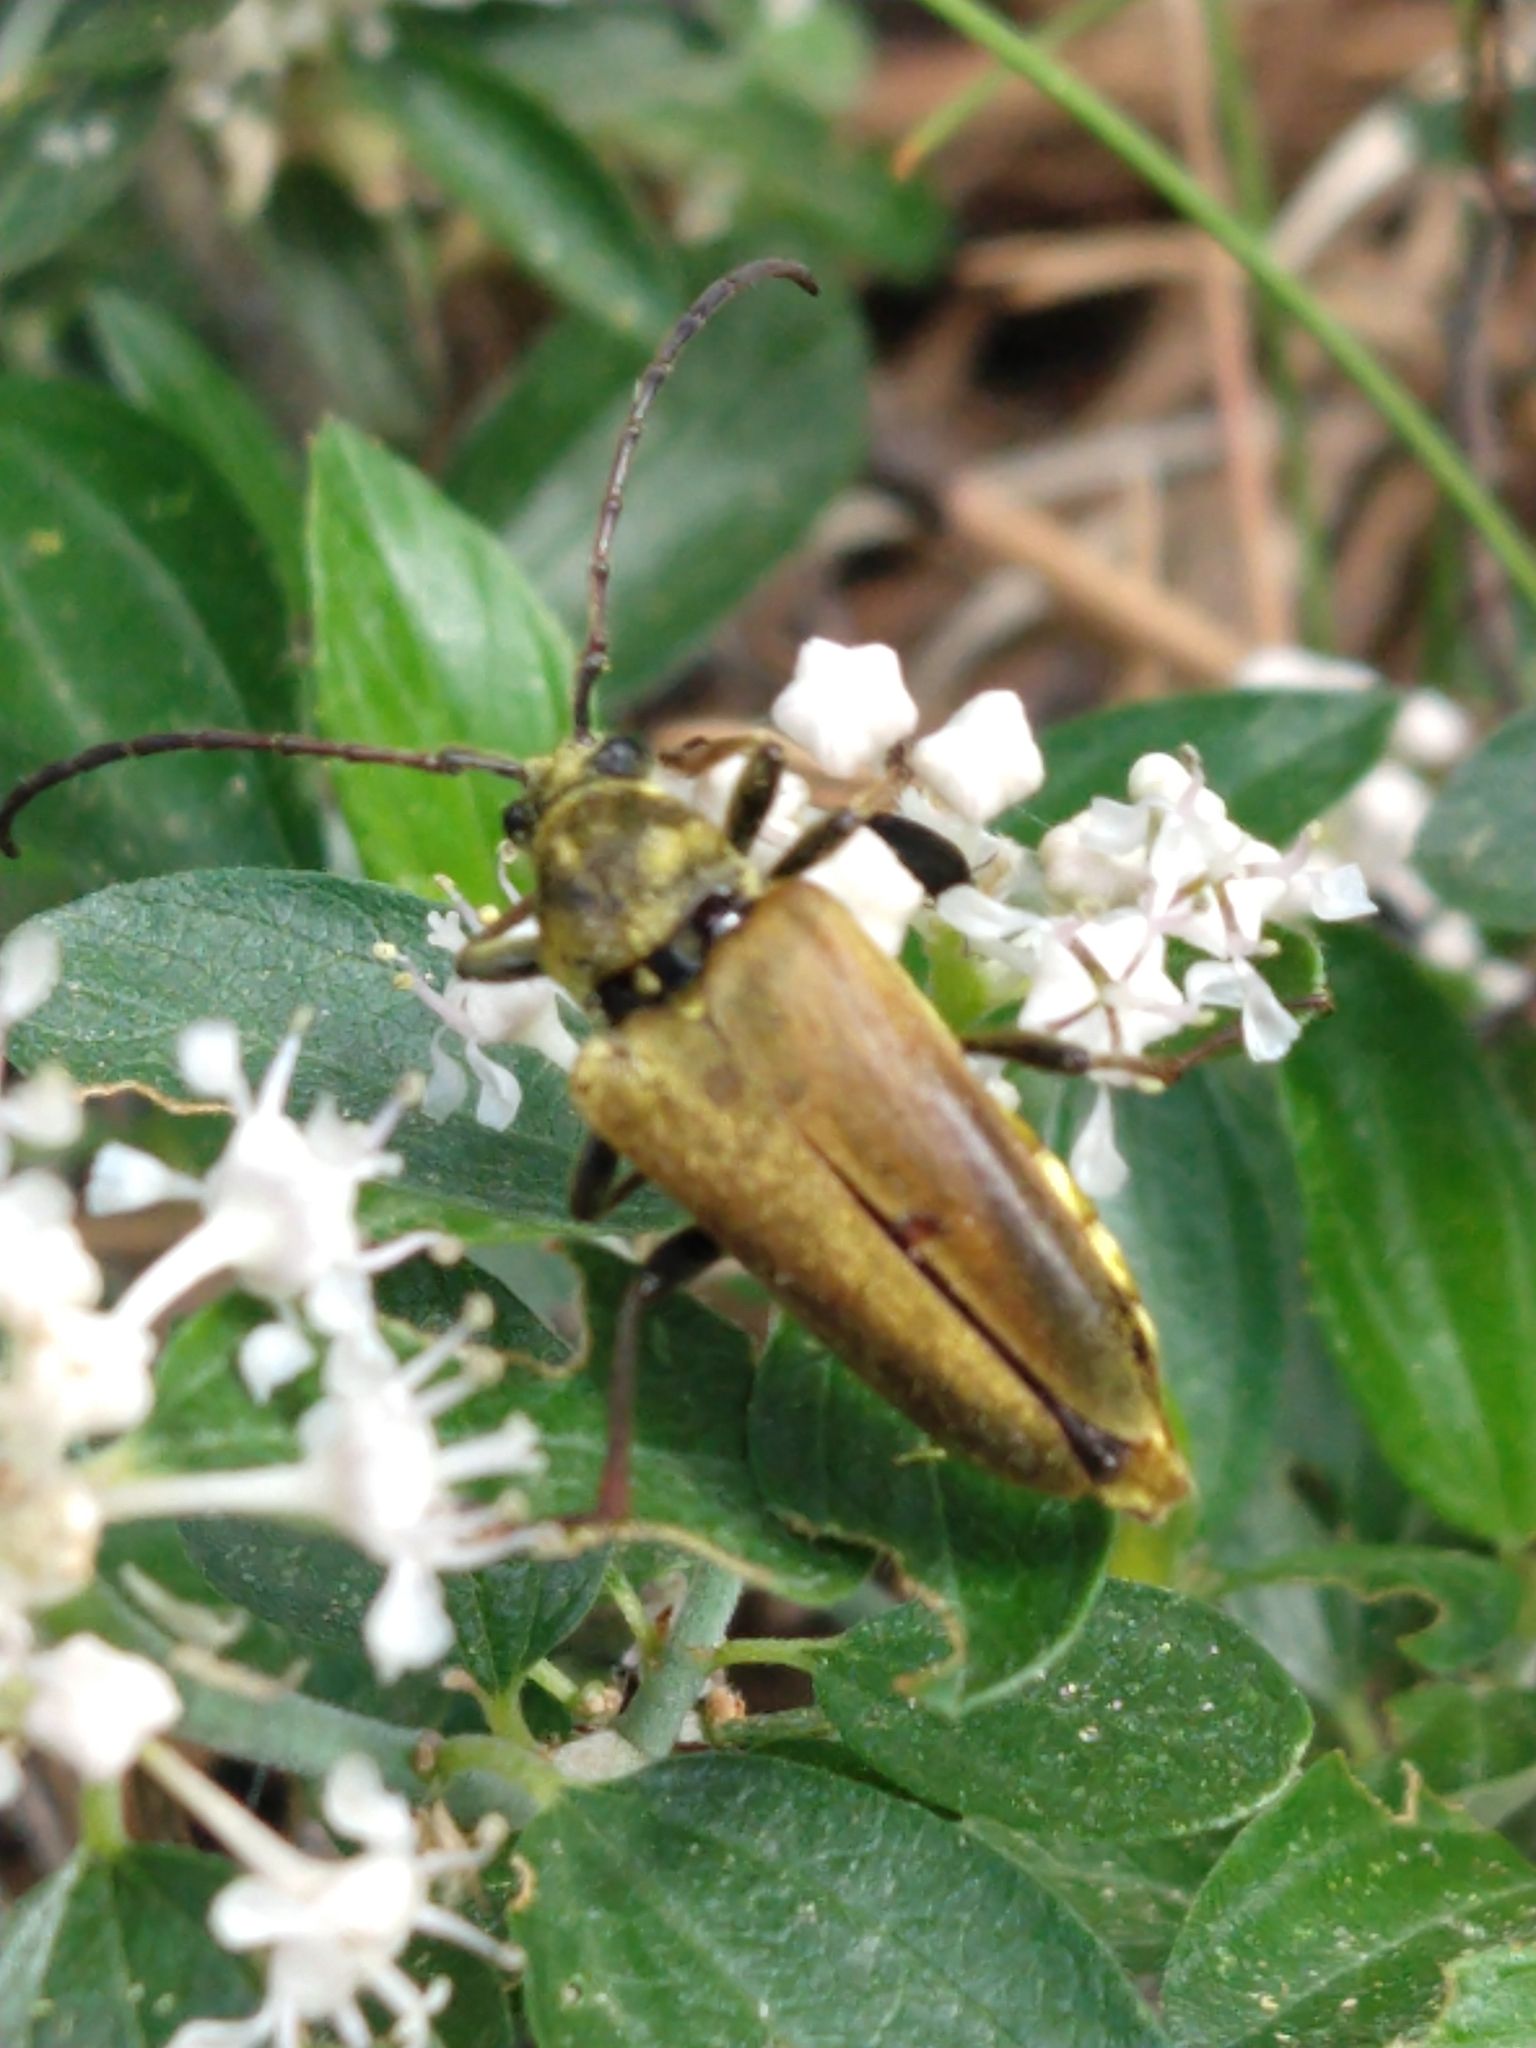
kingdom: Animalia
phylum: Arthropoda
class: Insecta
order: Coleoptera
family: Cerambycidae
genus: Cosmosalia
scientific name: Cosmosalia chrysocoma
